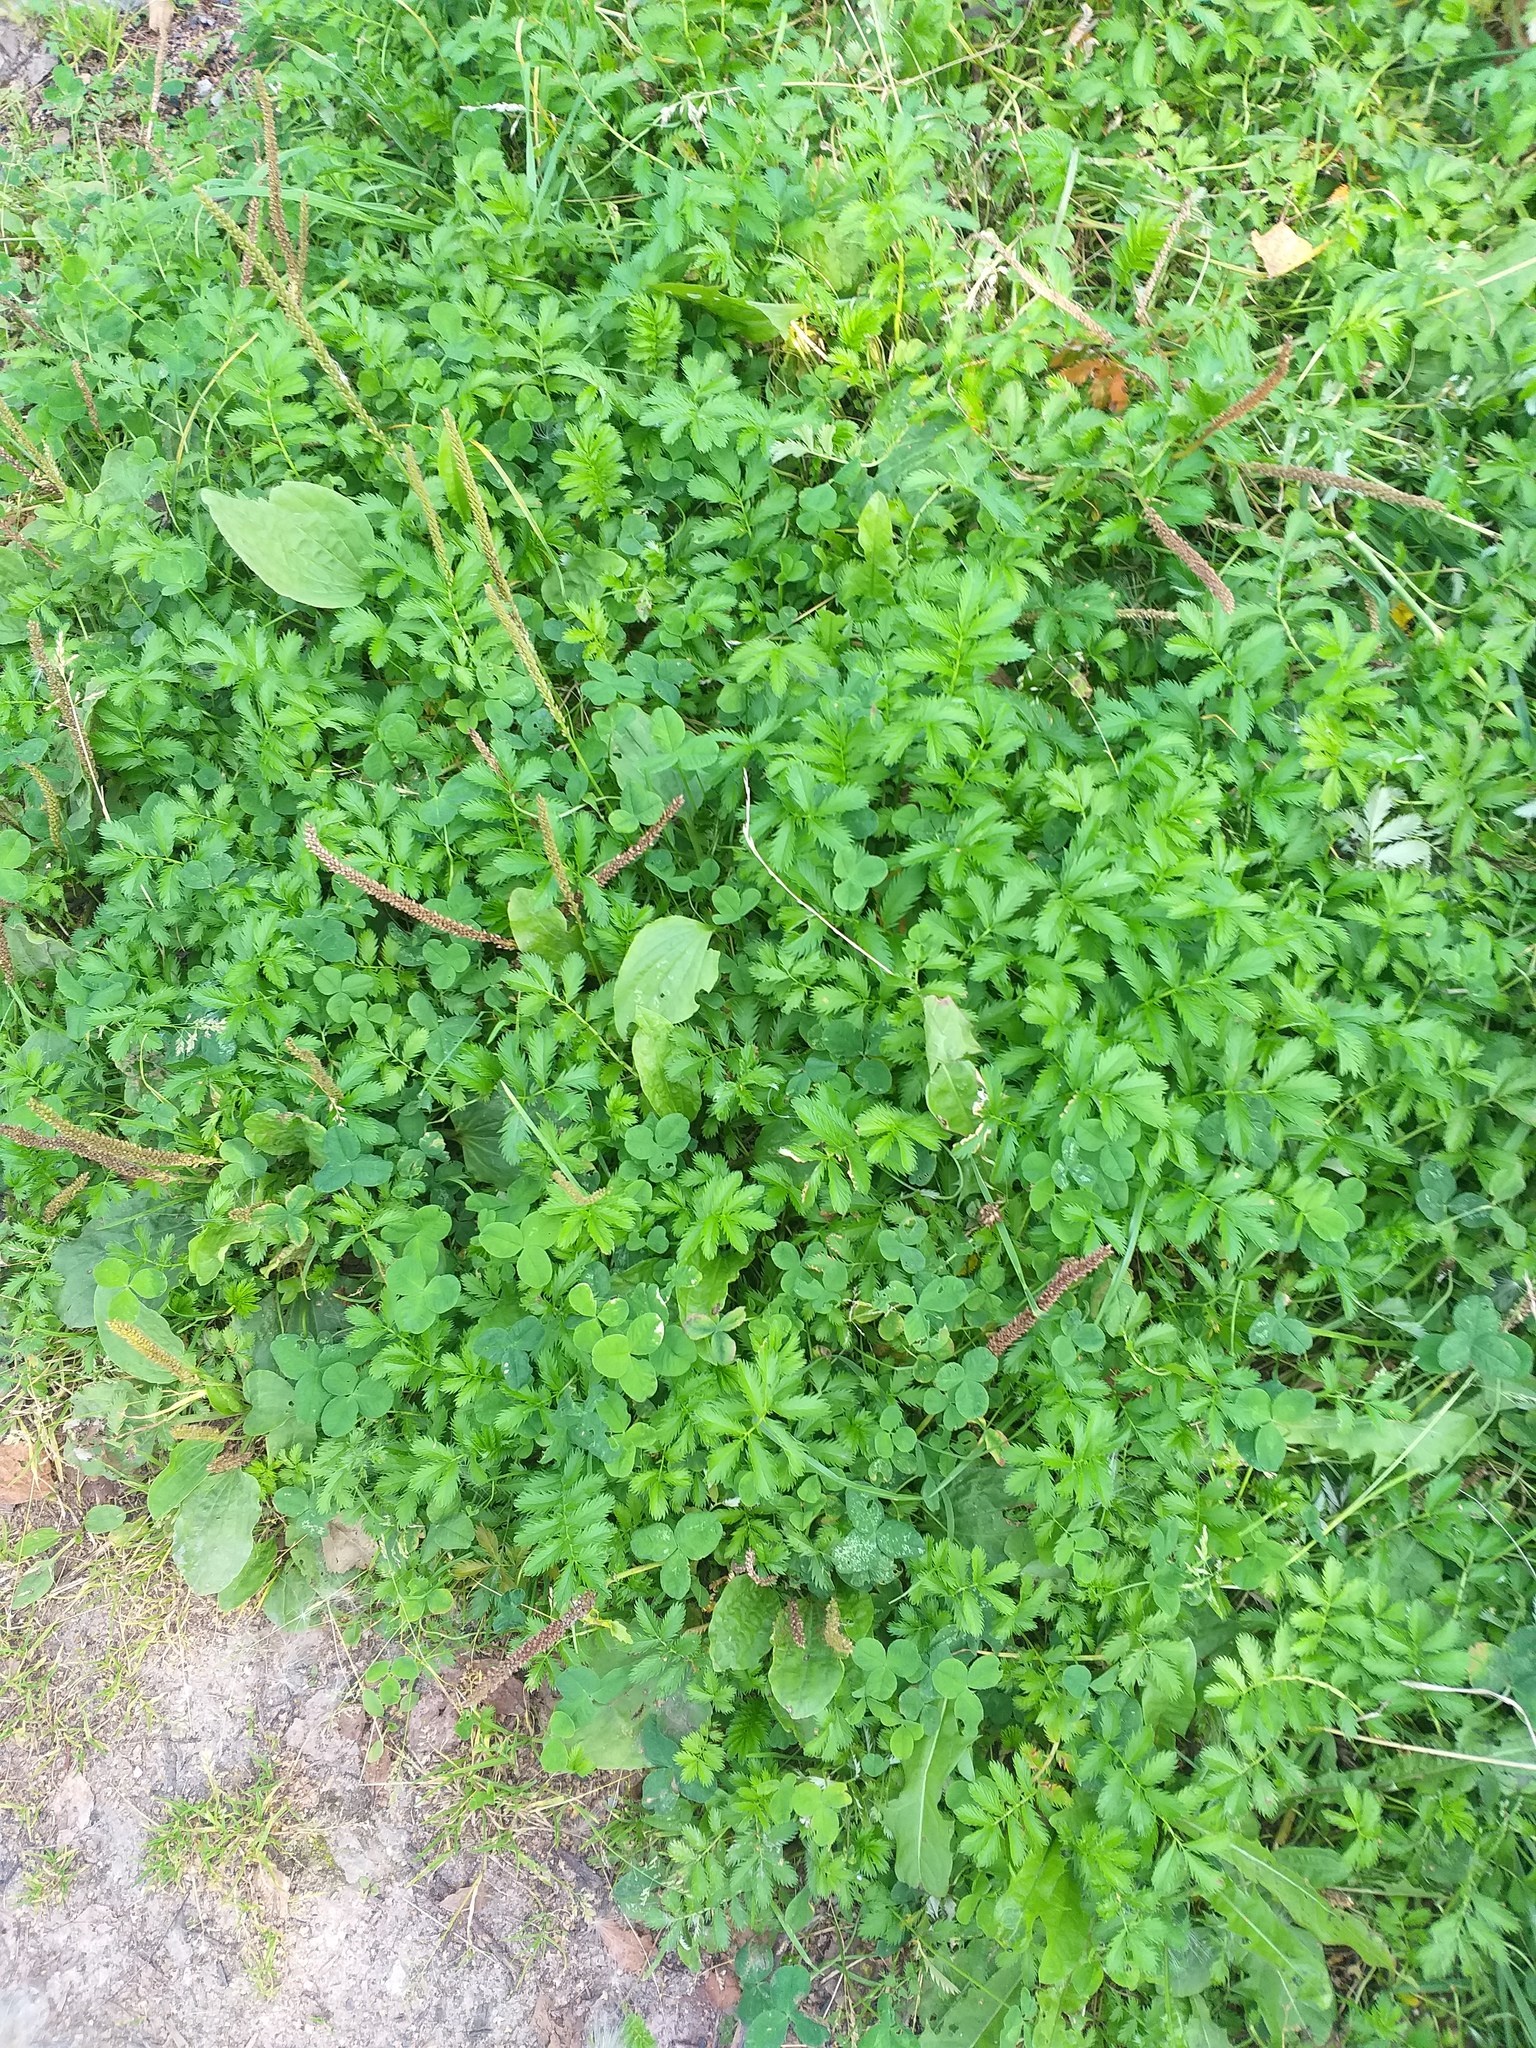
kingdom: Plantae
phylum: Tracheophyta
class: Magnoliopsida
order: Rosales
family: Rosaceae
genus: Argentina
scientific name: Argentina anserina
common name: Common silverweed
